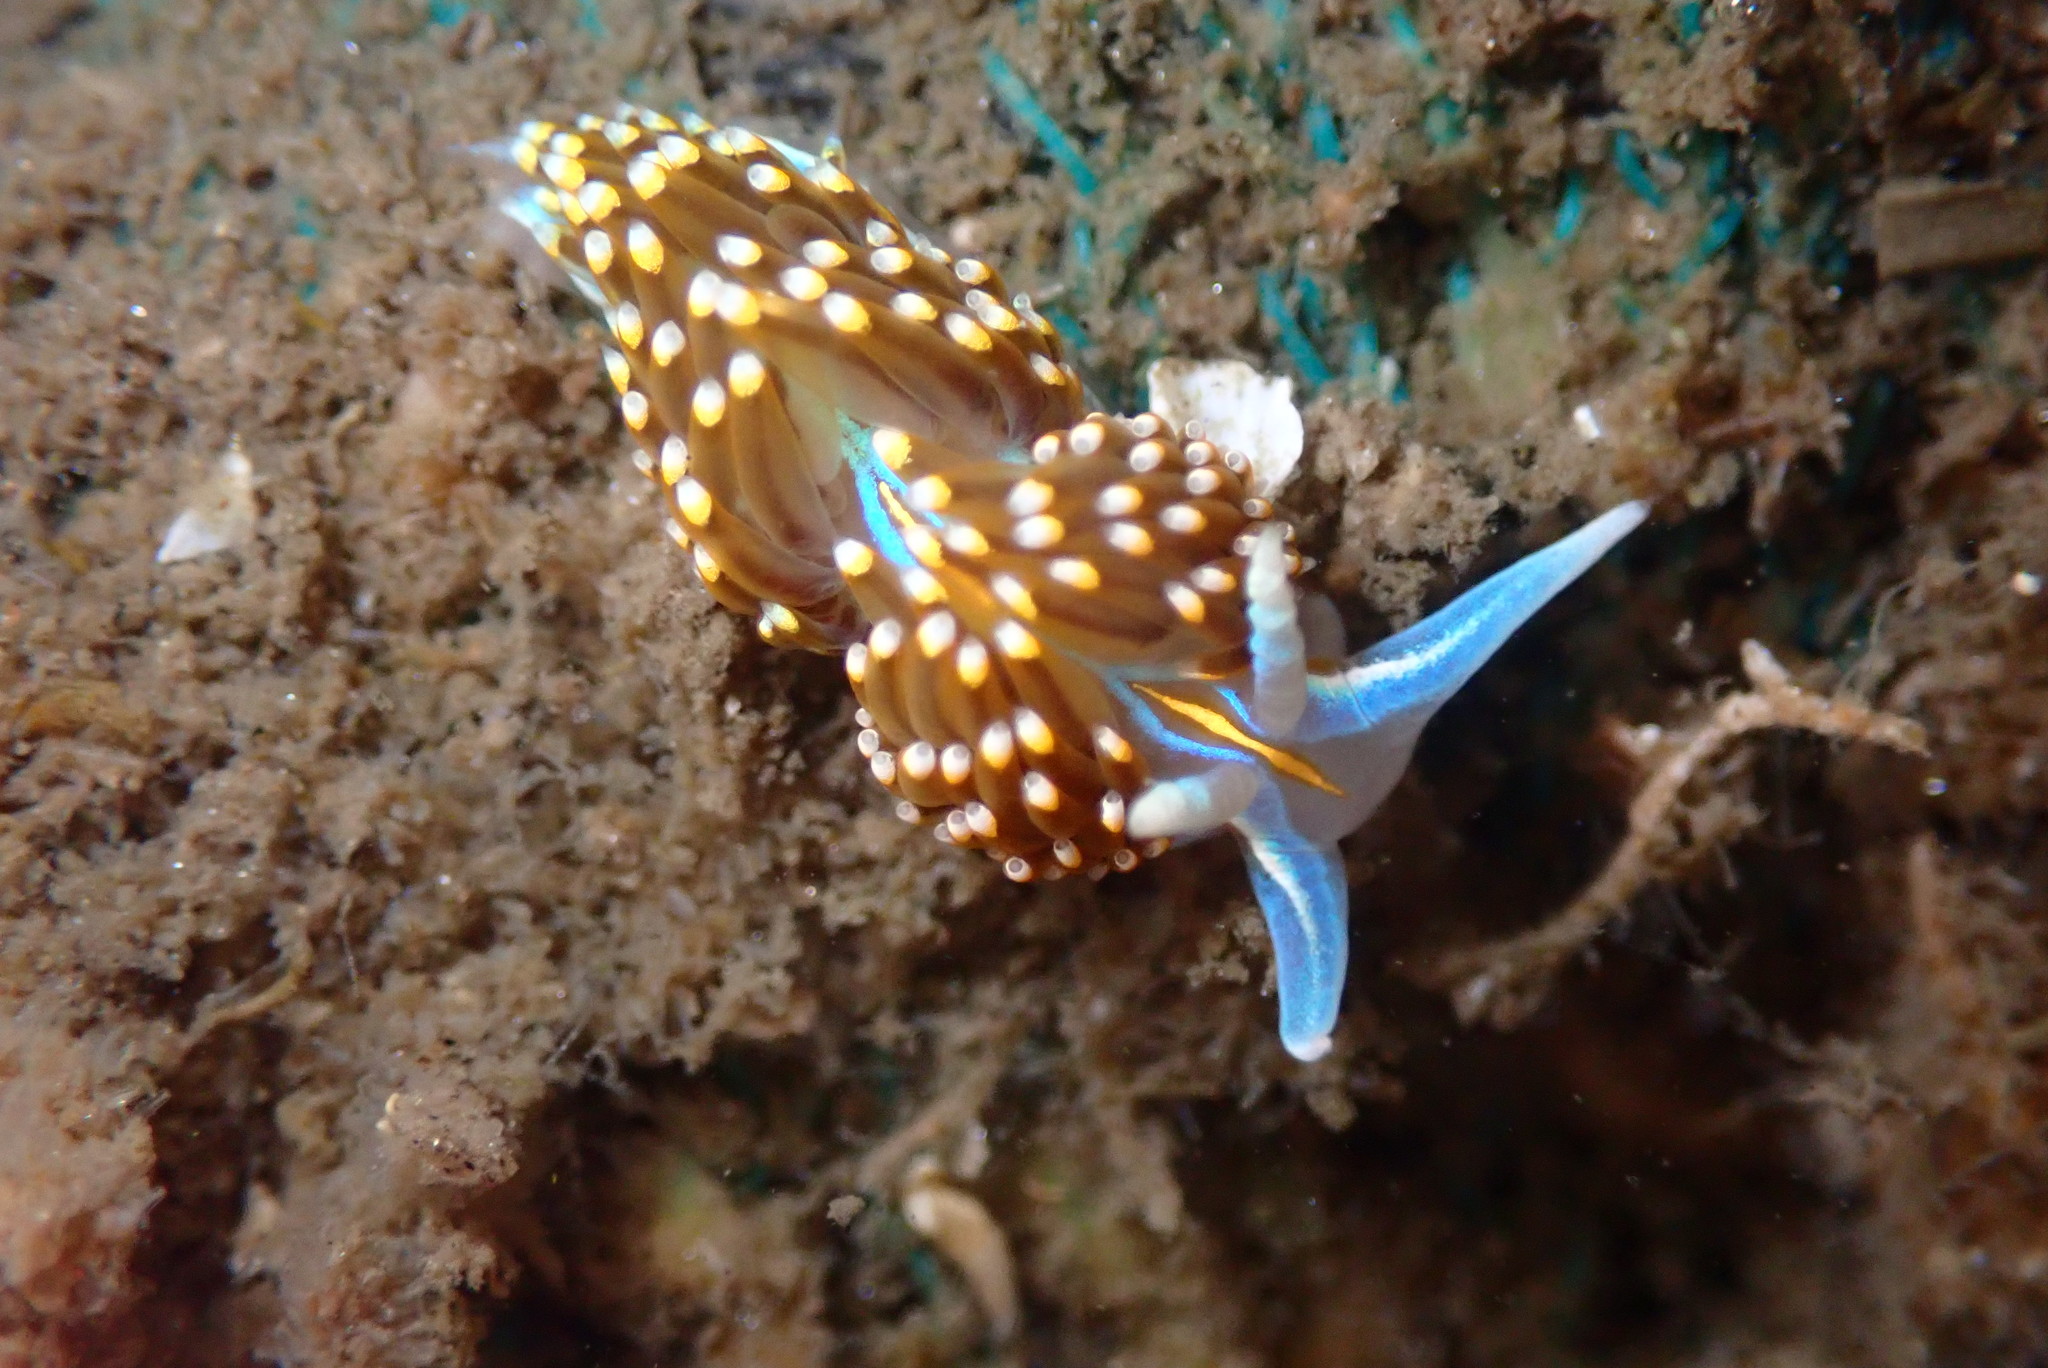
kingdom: Animalia
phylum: Mollusca
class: Gastropoda
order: Nudibranchia
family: Myrrhinidae
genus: Hermissenda
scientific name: Hermissenda opalescens
